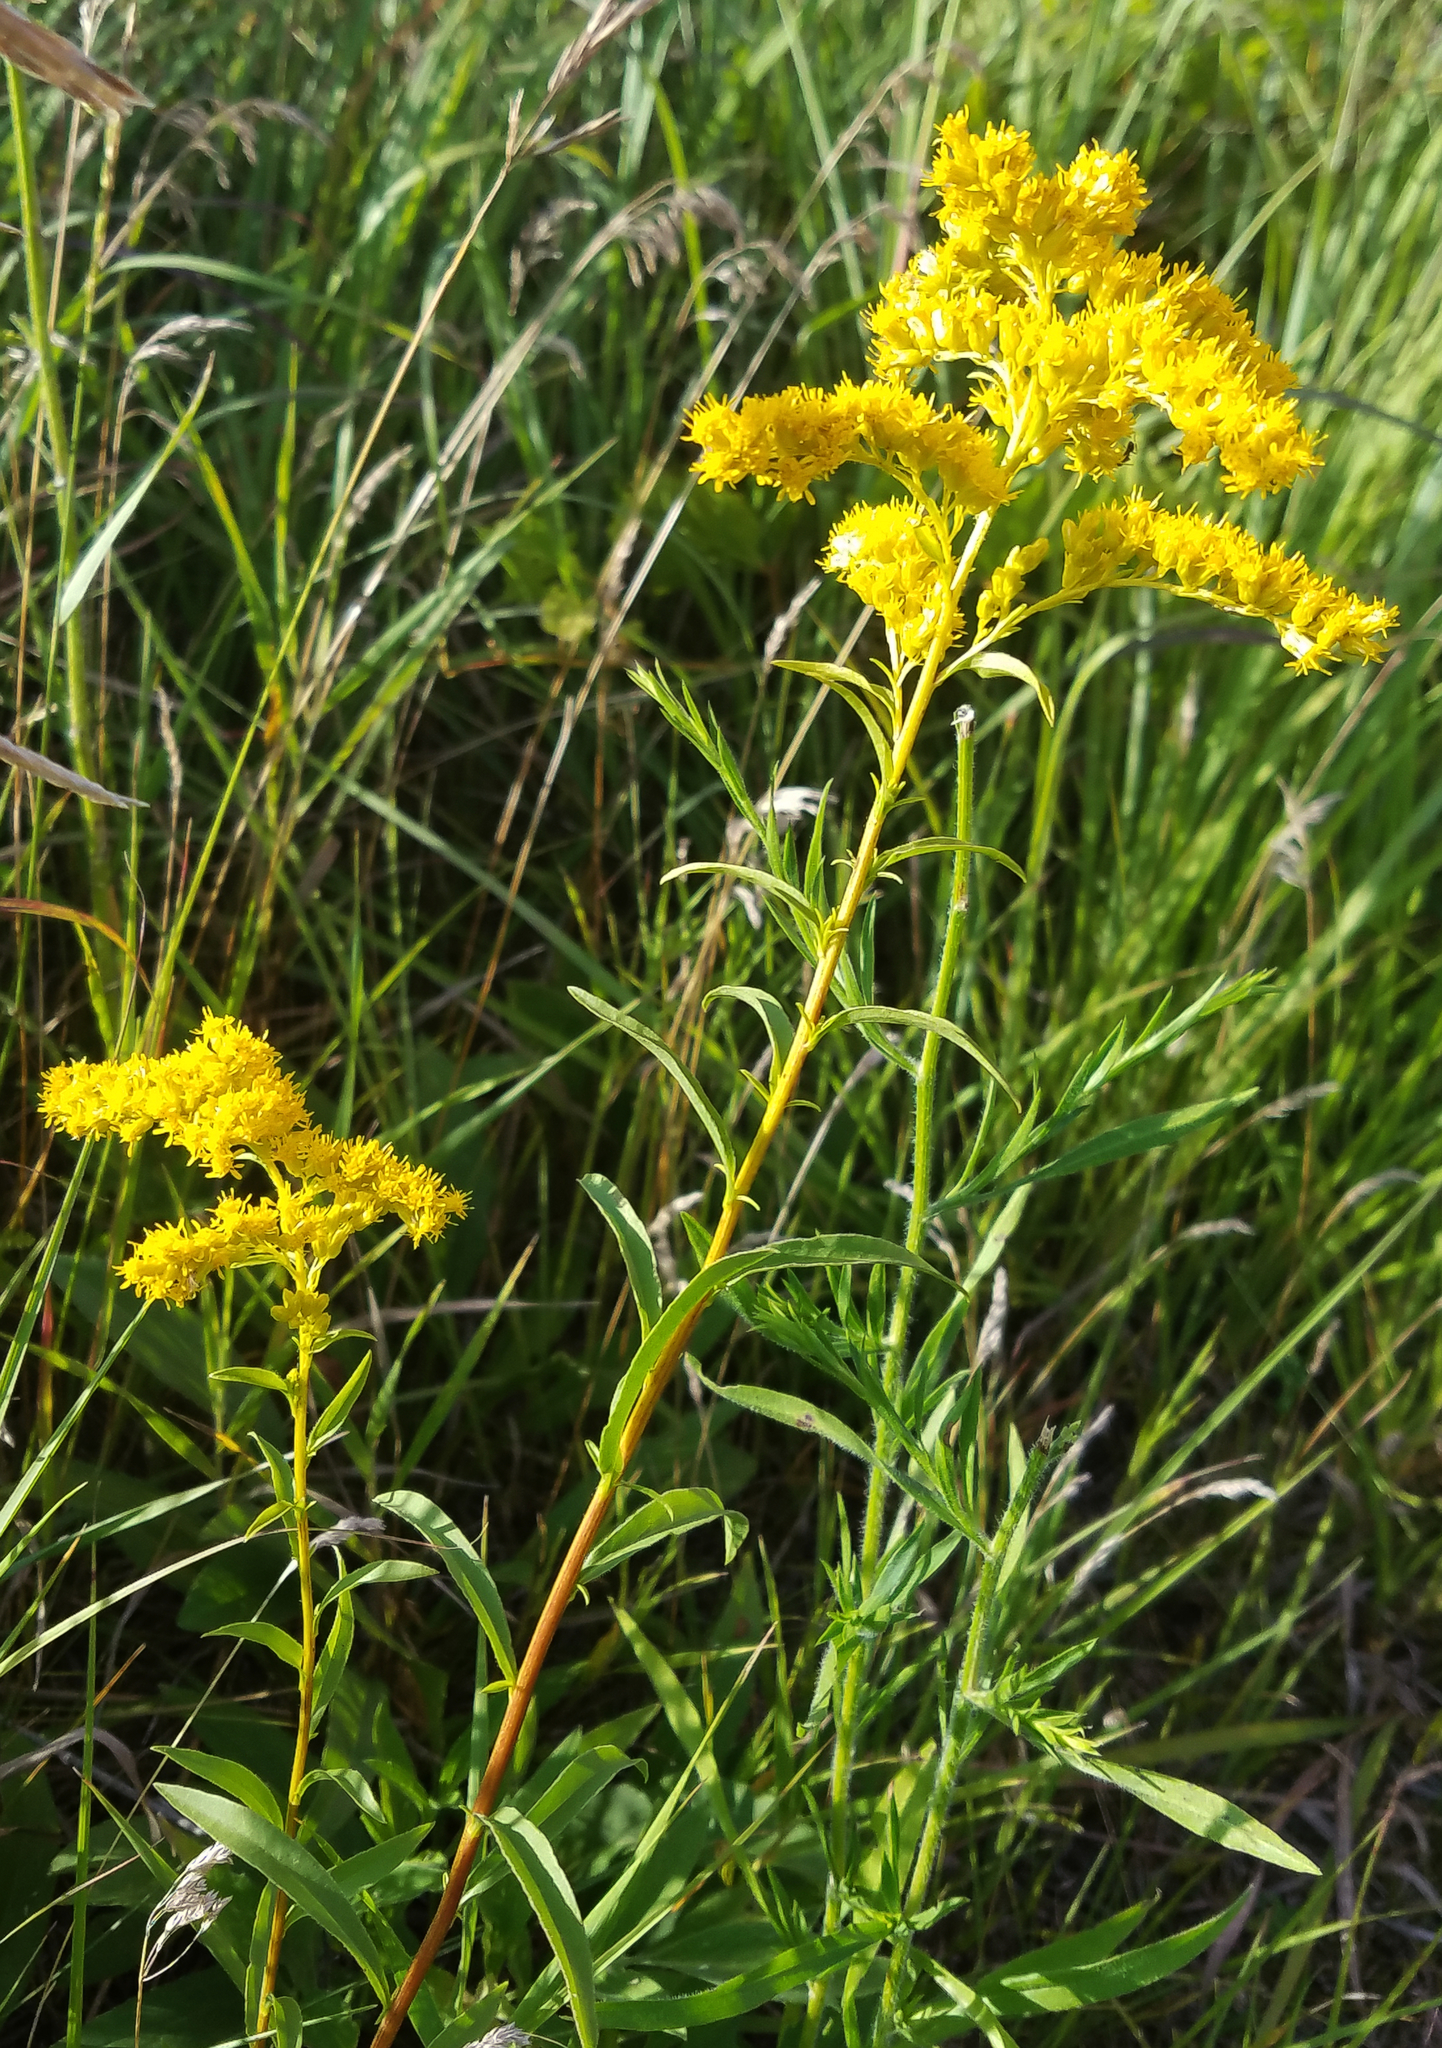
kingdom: Plantae
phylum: Tracheophyta
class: Magnoliopsida
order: Asterales
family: Asteraceae
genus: Solidago
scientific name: Solidago juncea
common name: Early goldenrod
